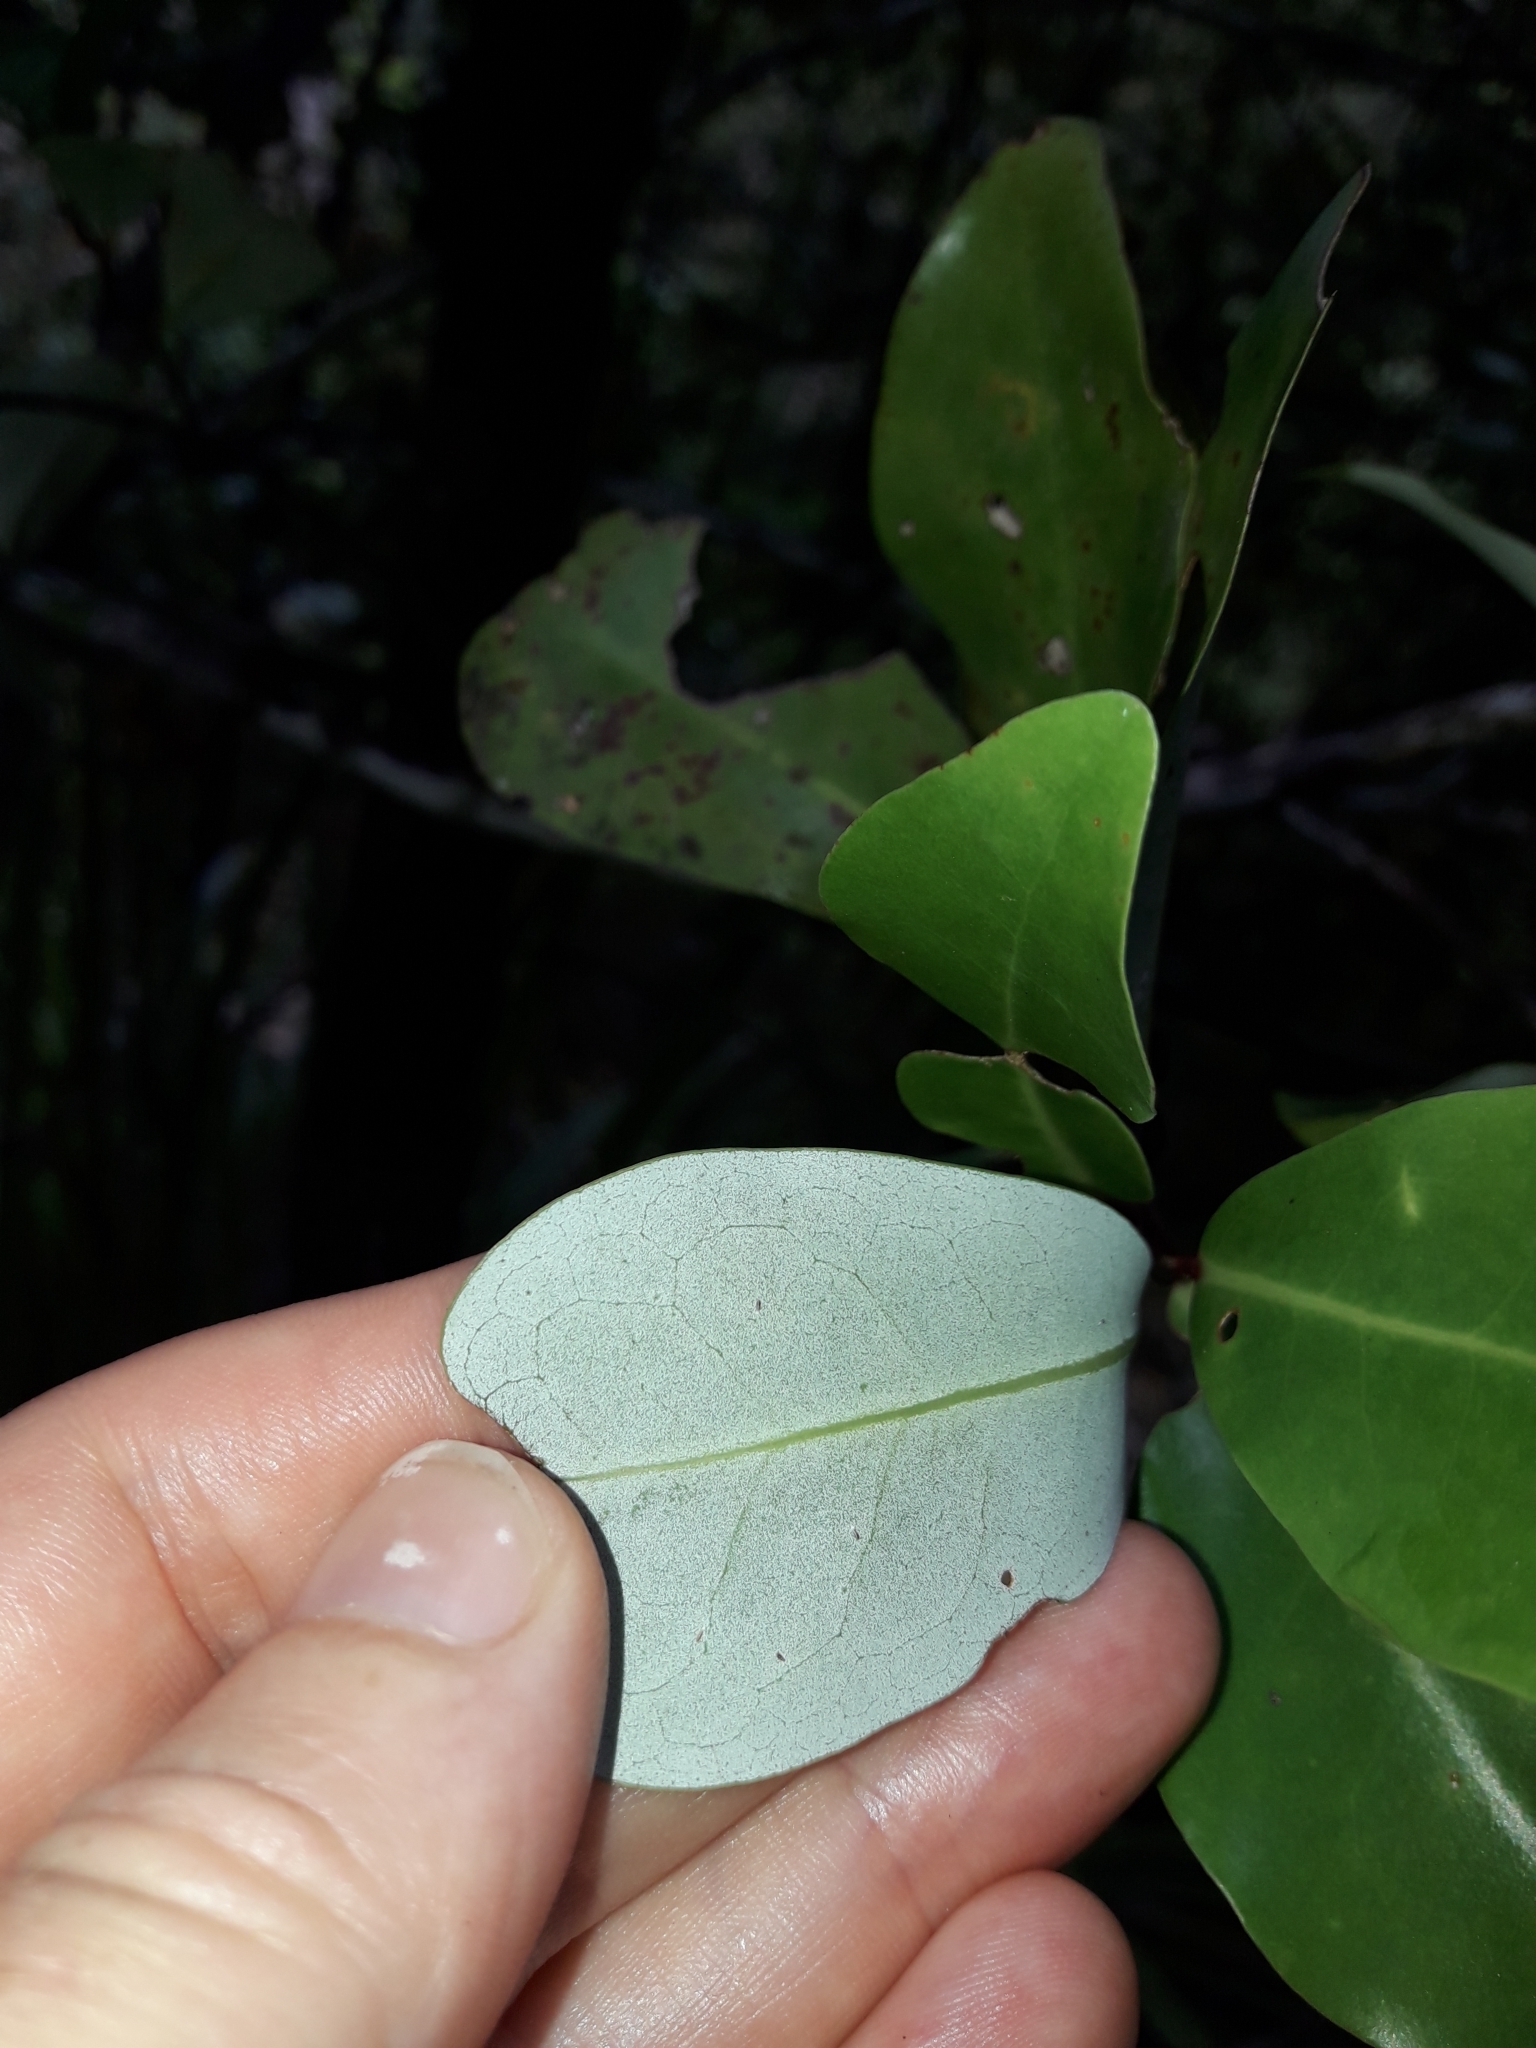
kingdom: Plantae
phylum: Tracheophyta
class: Magnoliopsida
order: Canellales
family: Winteraceae
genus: Pseudowintera
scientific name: Pseudowintera axillaris
